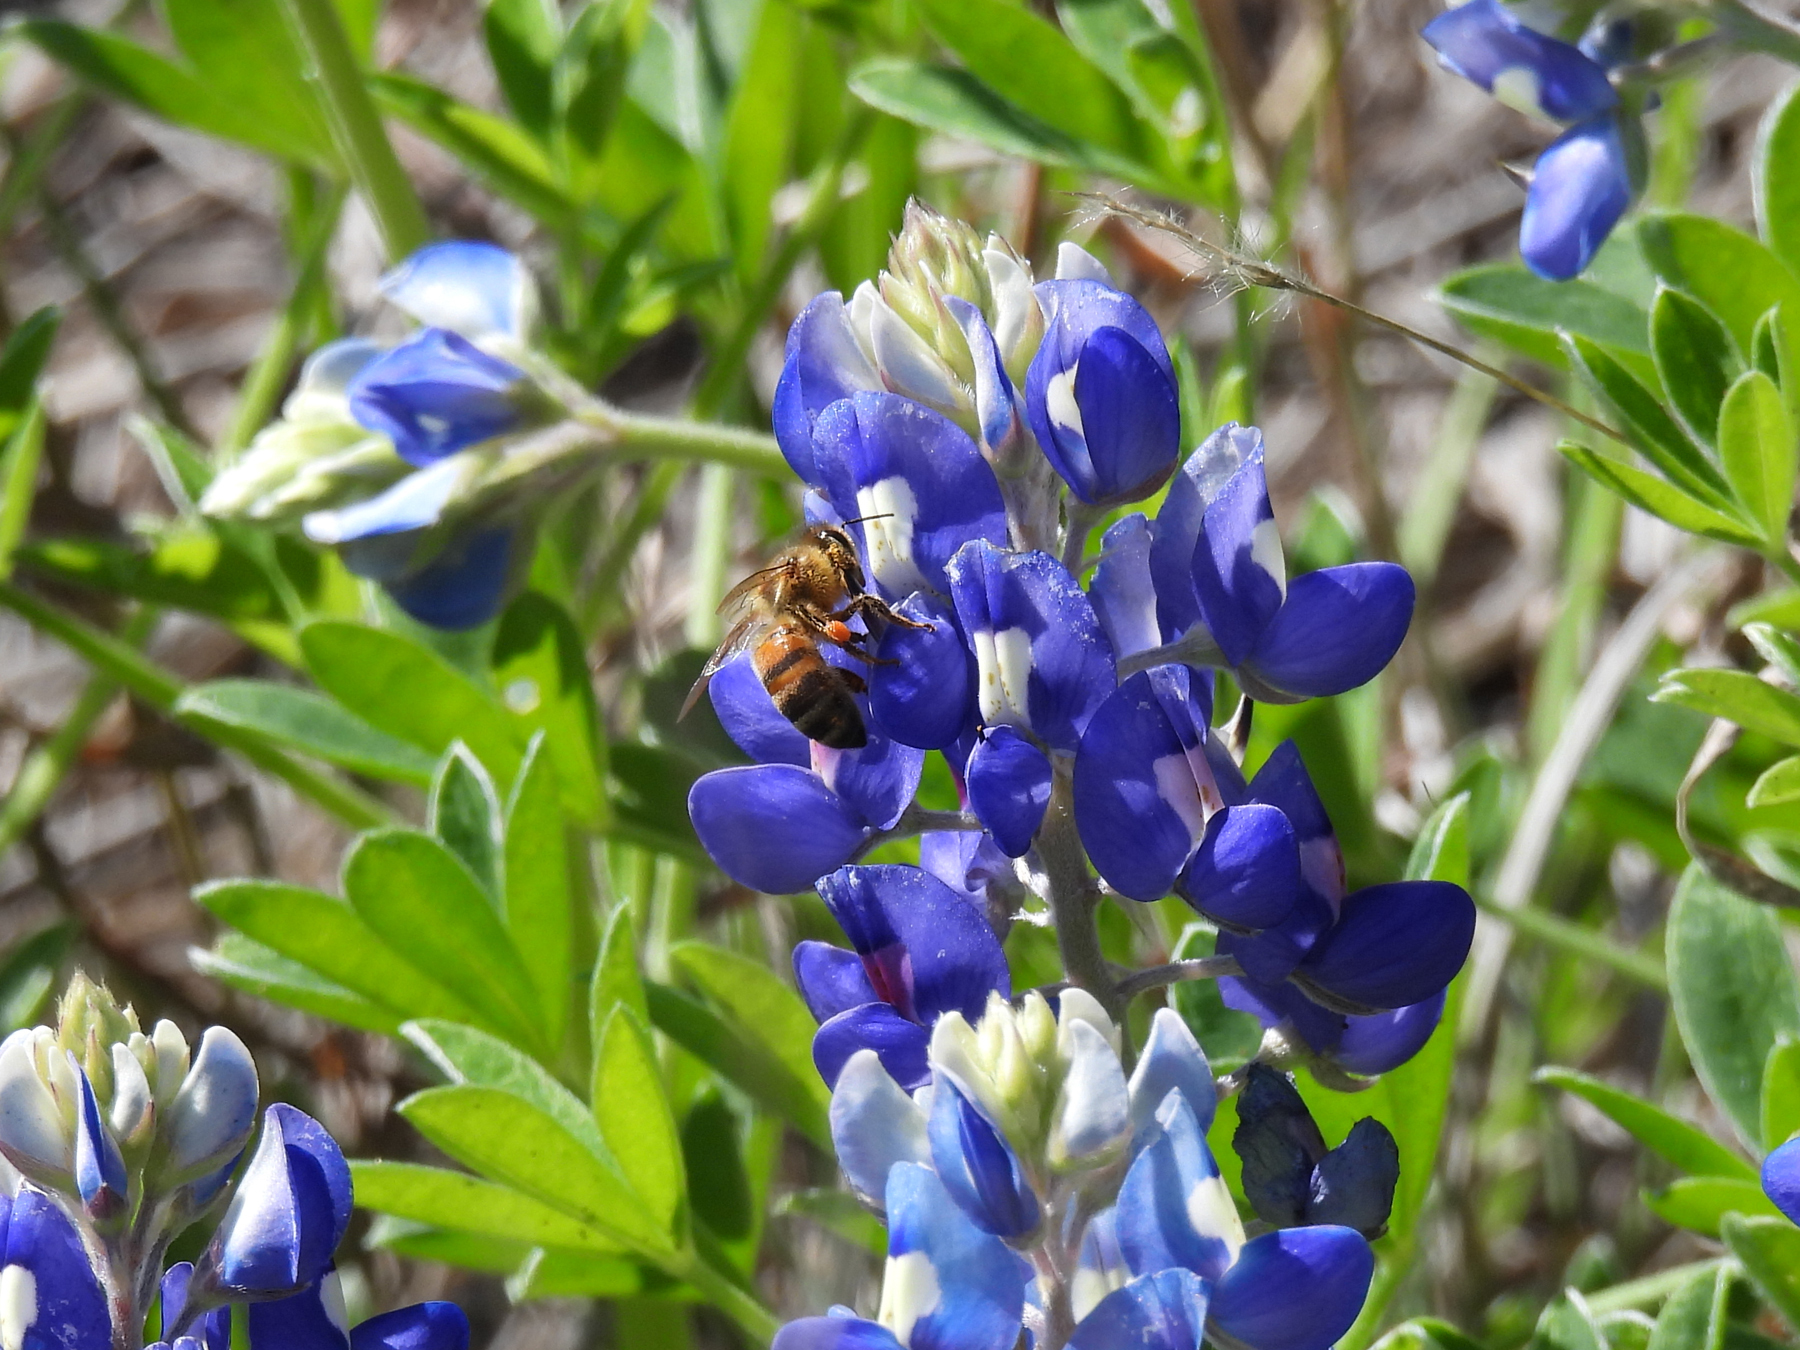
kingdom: Animalia
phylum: Arthropoda
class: Insecta
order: Hymenoptera
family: Apidae
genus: Apis
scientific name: Apis mellifera
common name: Honey bee
